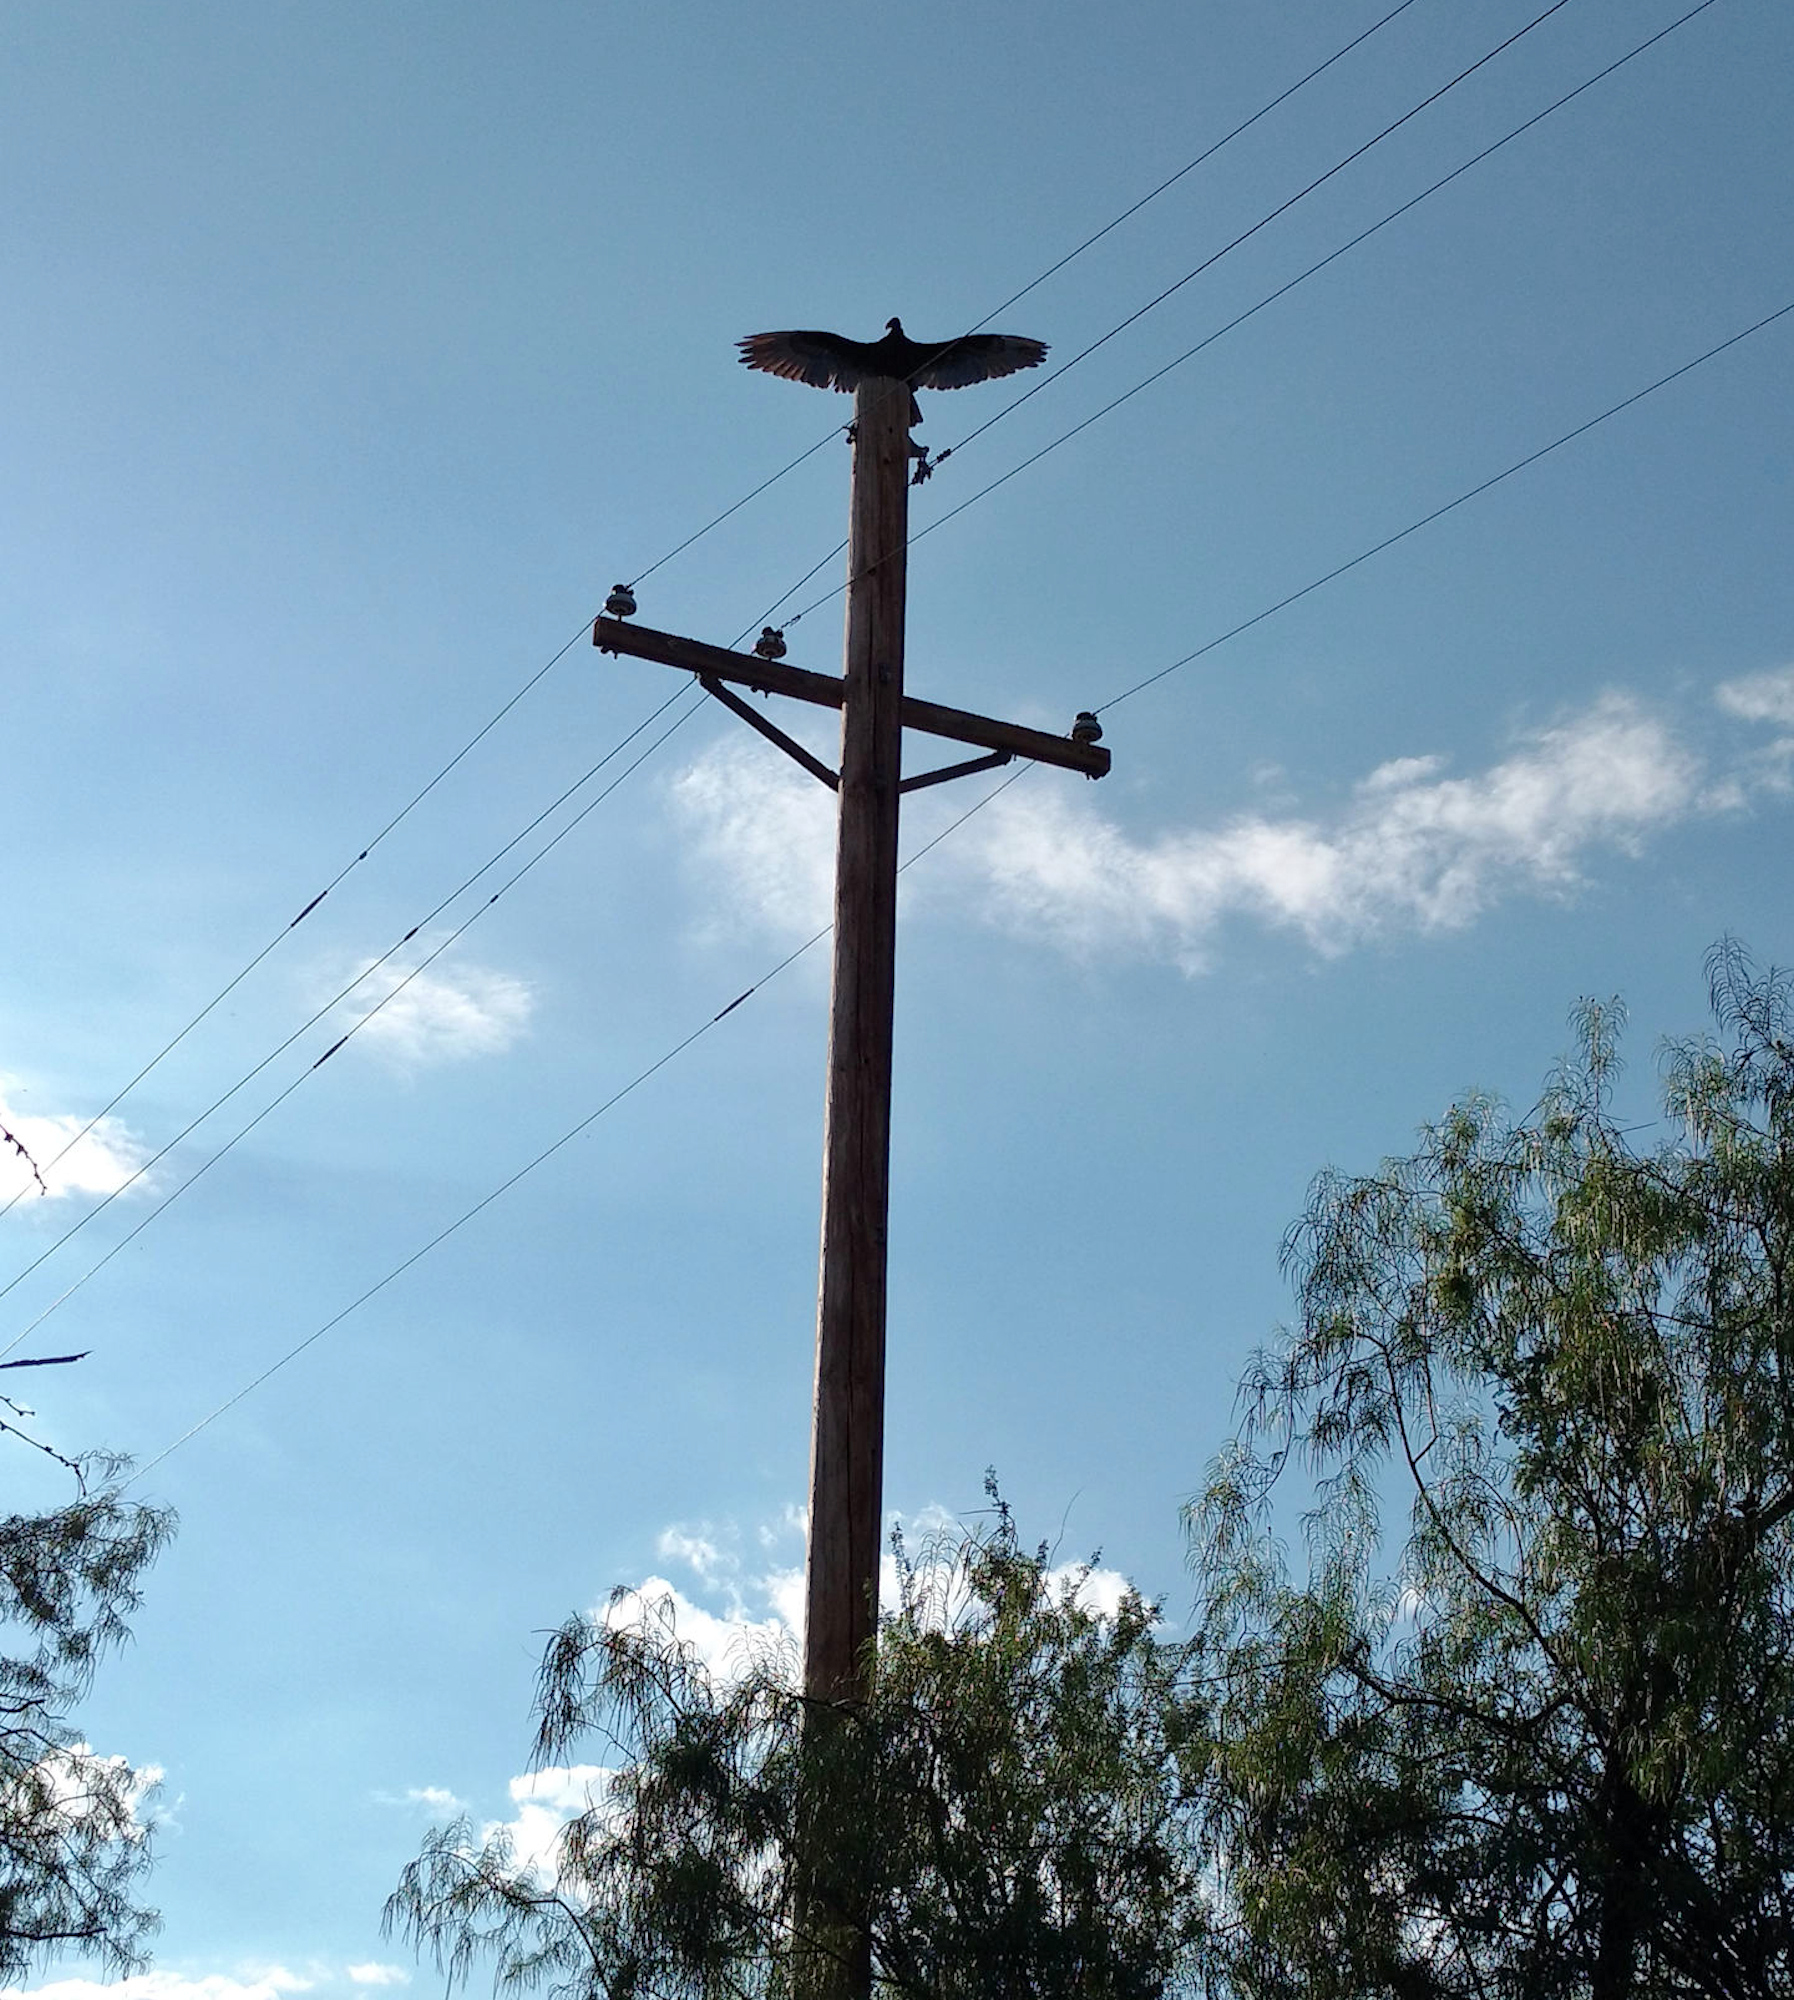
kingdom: Animalia
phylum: Chordata
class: Aves
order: Accipitriformes
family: Cathartidae
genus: Cathartes
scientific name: Cathartes aura
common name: Turkey vulture
